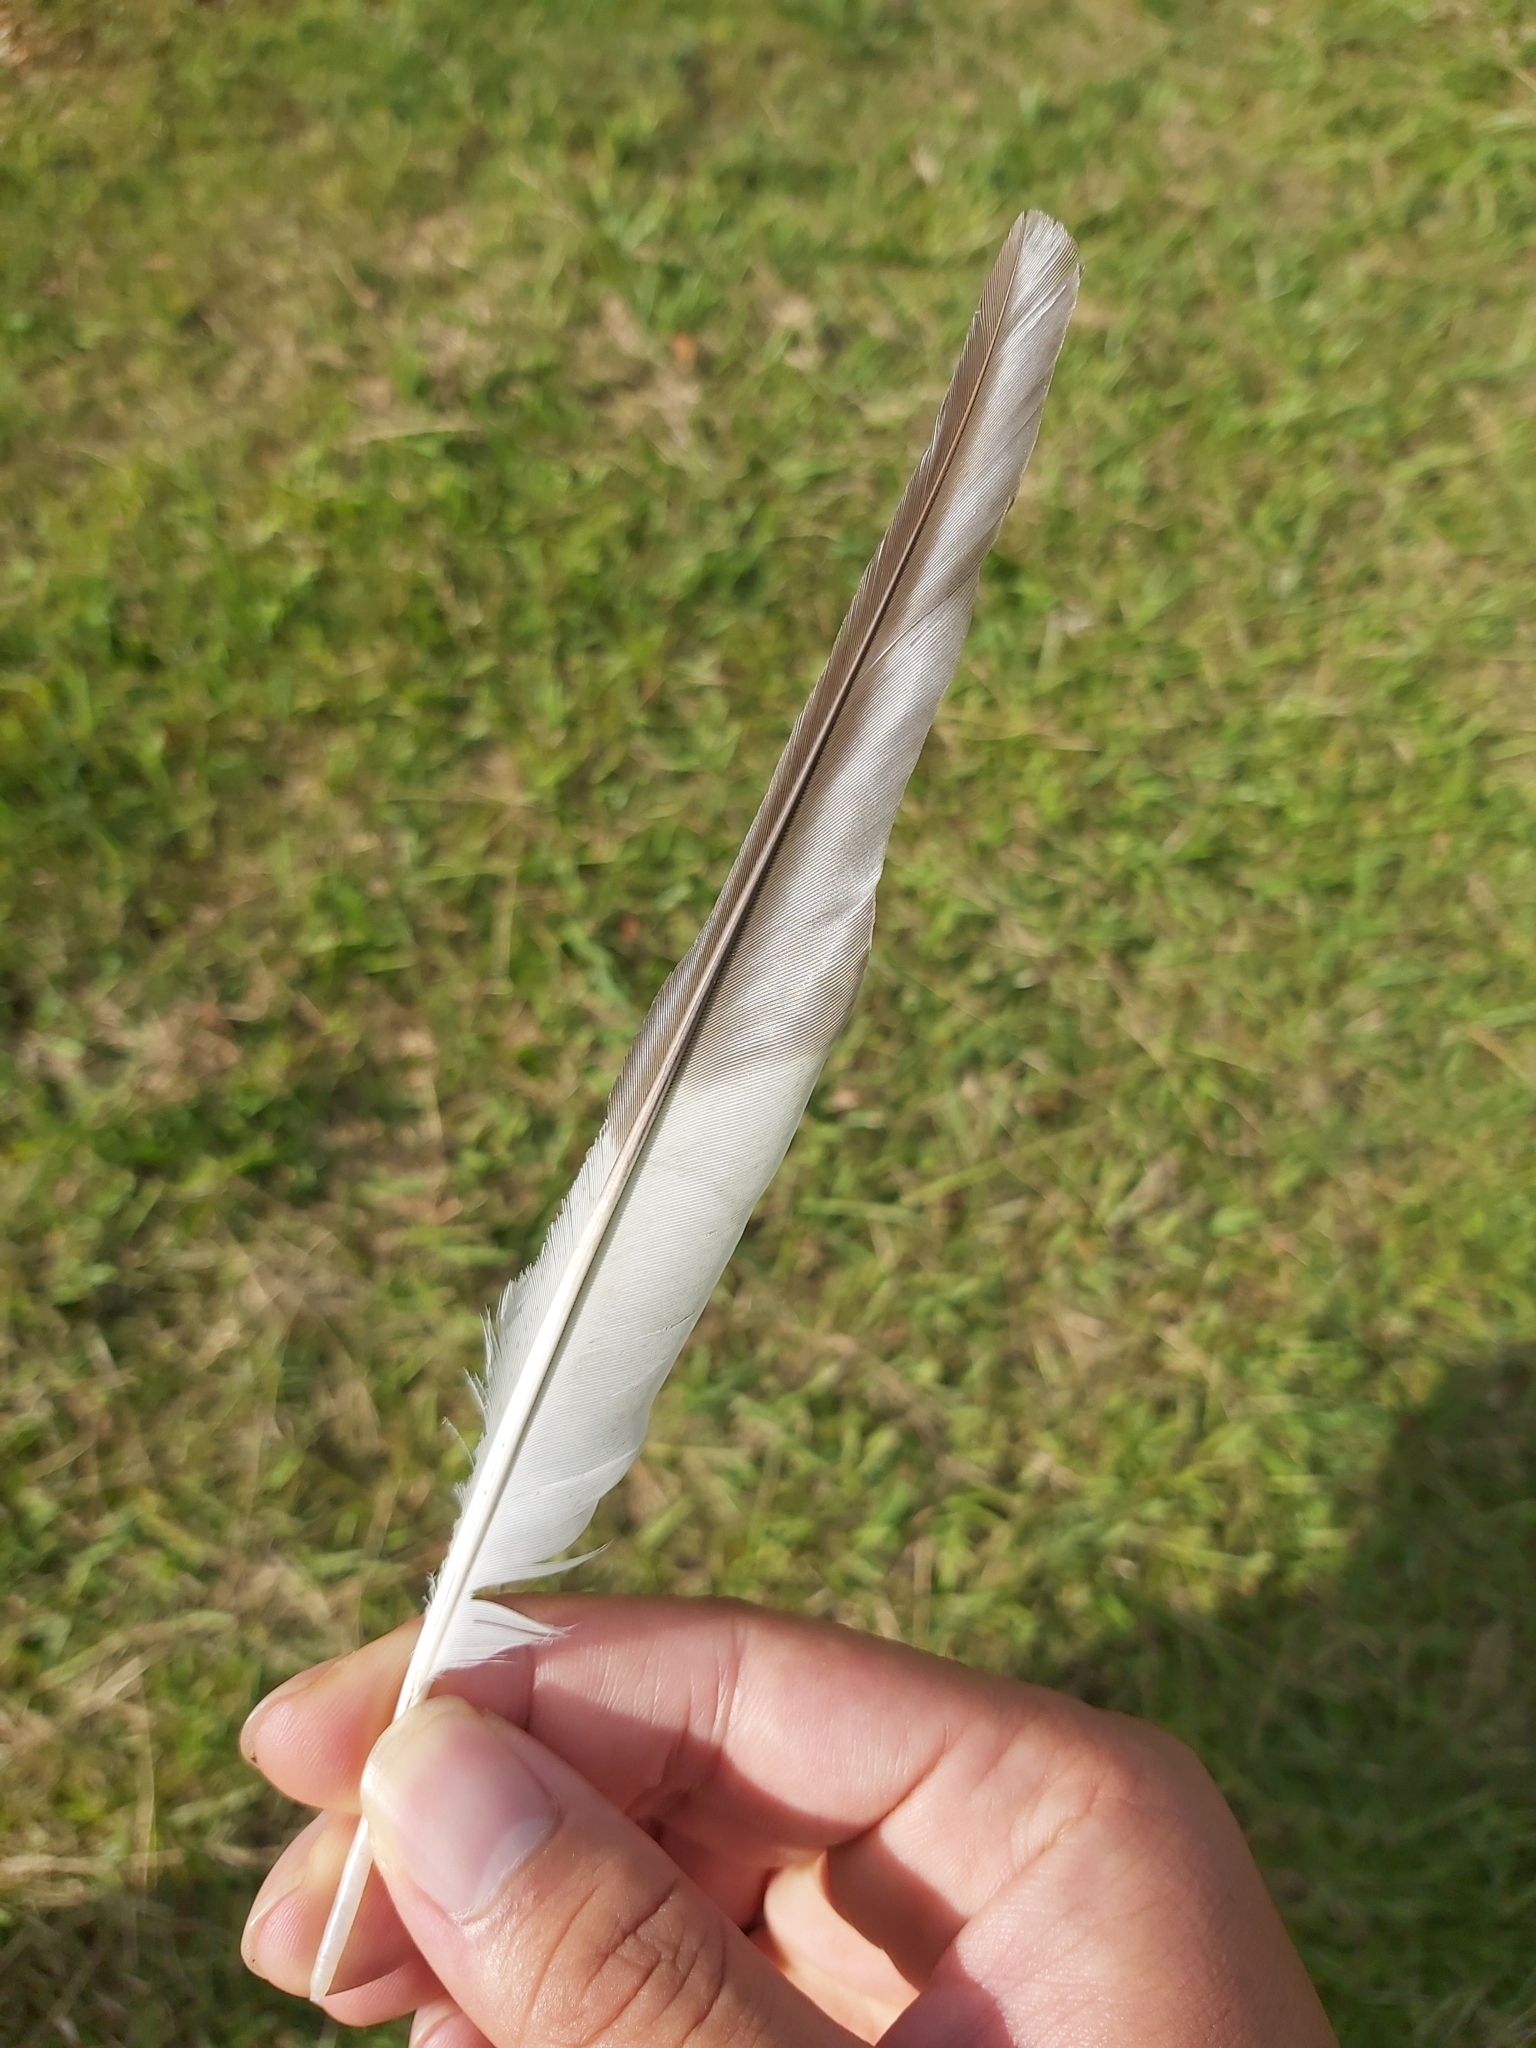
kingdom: Animalia
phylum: Chordata
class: Aves
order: Coraciiformes
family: Alcedinidae
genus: Dacelo
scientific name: Dacelo novaeguineae
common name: Laughing kookaburra
